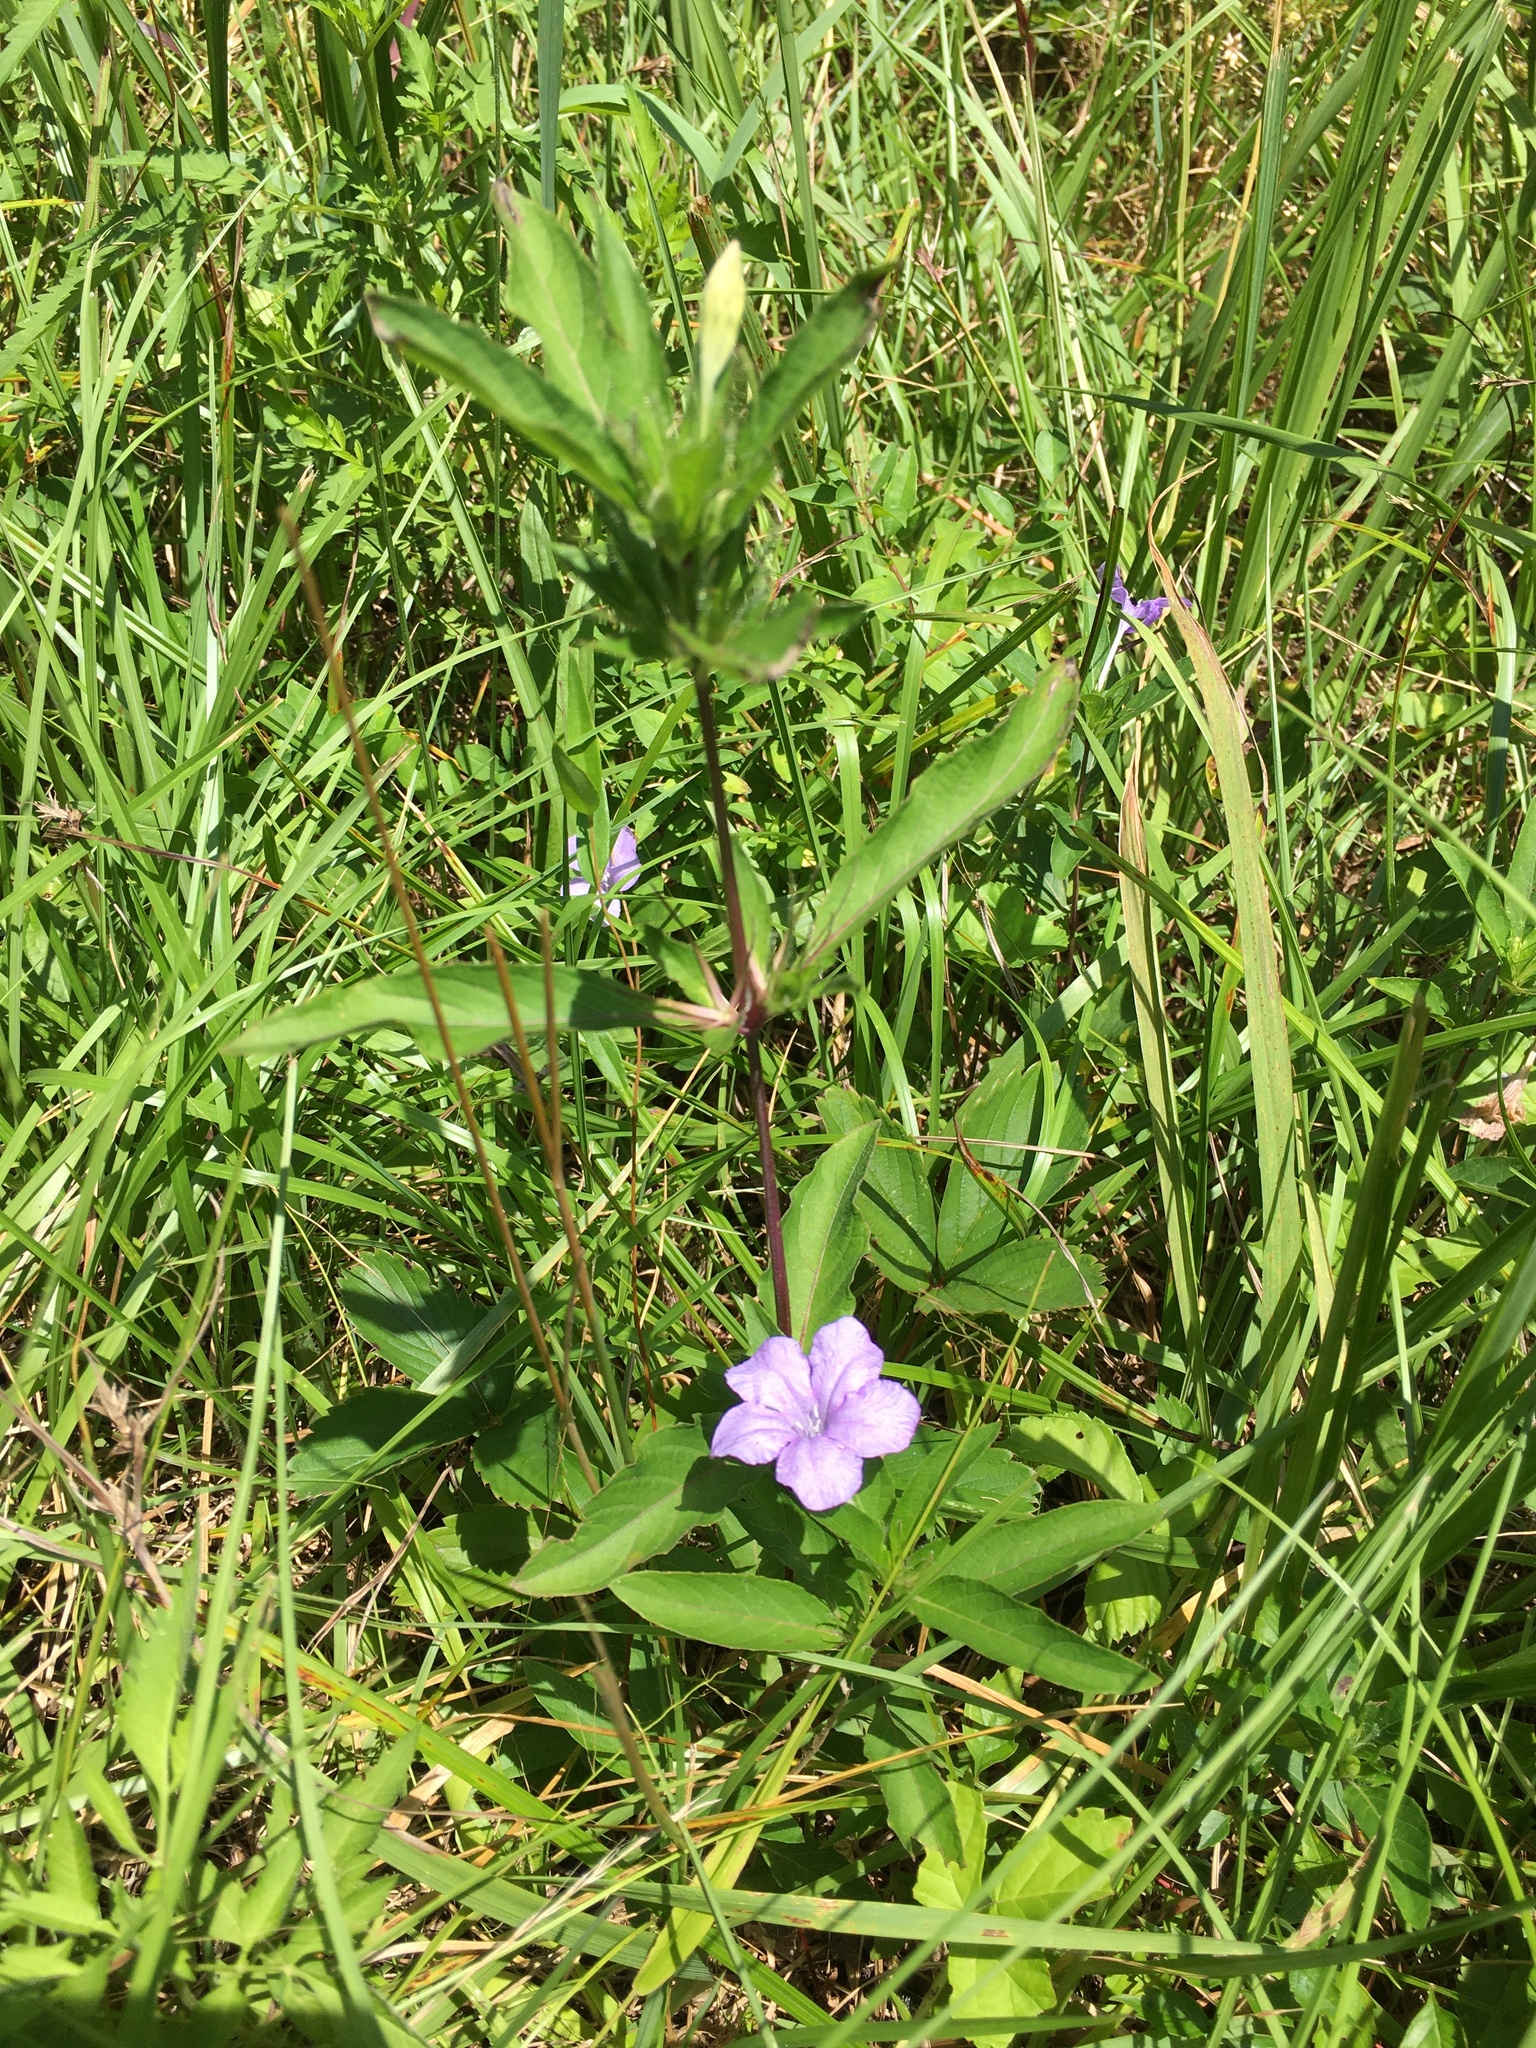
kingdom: Plantae
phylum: Tracheophyta
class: Magnoliopsida
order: Lamiales
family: Acanthaceae
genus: Ruellia
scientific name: Ruellia caroliniensis
